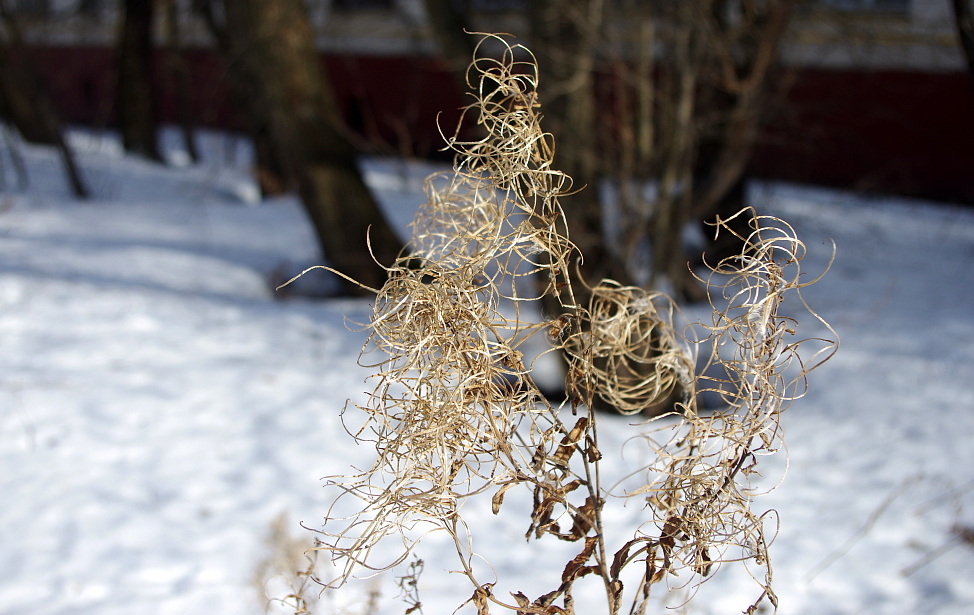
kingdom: Plantae
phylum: Tracheophyta
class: Magnoliopsida
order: Myrtales
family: Onagraceae
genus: Epilobium
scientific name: Epilobium hirsutum
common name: Great willowherb
